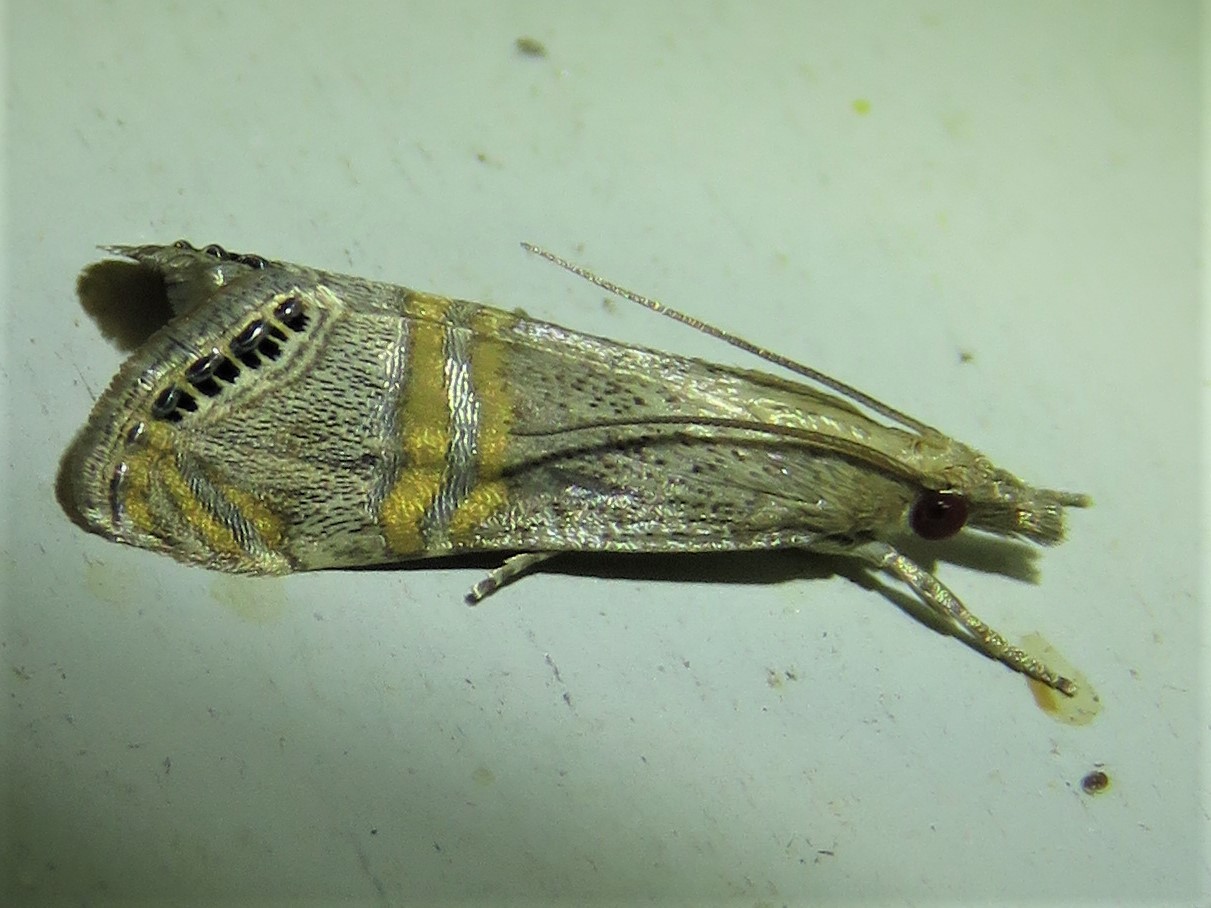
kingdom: Animalia
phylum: Arthropoda
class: Insecta
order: Lepidoptera
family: Crambidae
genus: Euchromius
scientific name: Euchromius ocellea
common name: Necklace veneer moth
